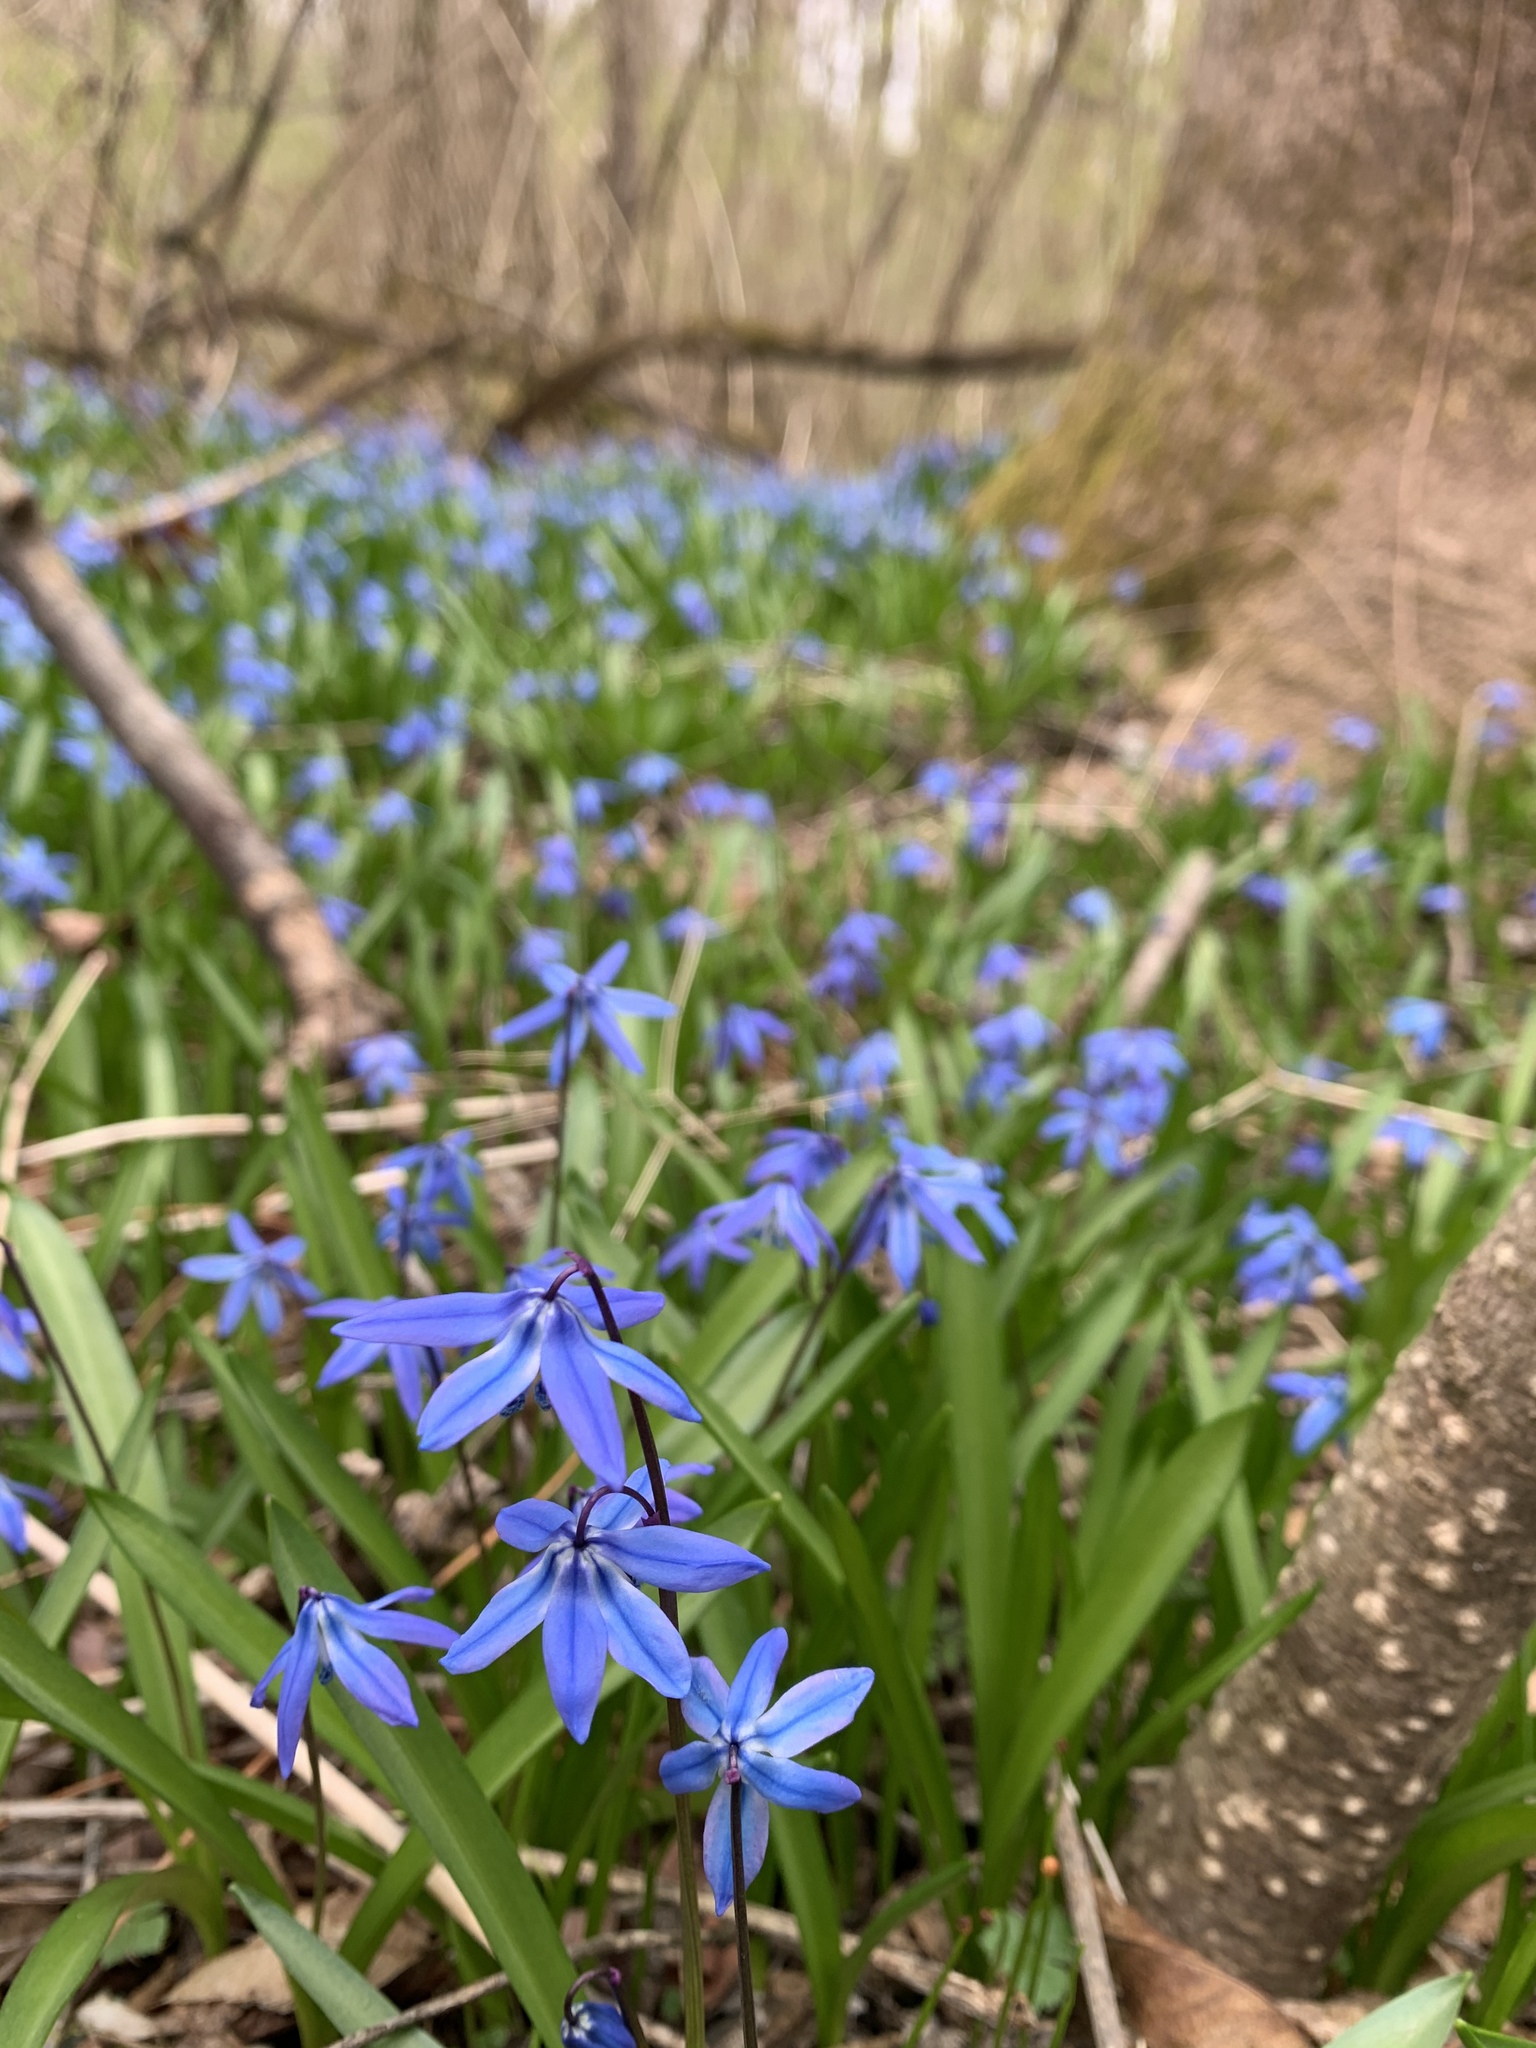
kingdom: Plantae
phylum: Tracheophyta
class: Liliopsida
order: Asparagales
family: Asparagaceae
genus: Scilla
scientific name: Scilla siberica
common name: Siberian squill
